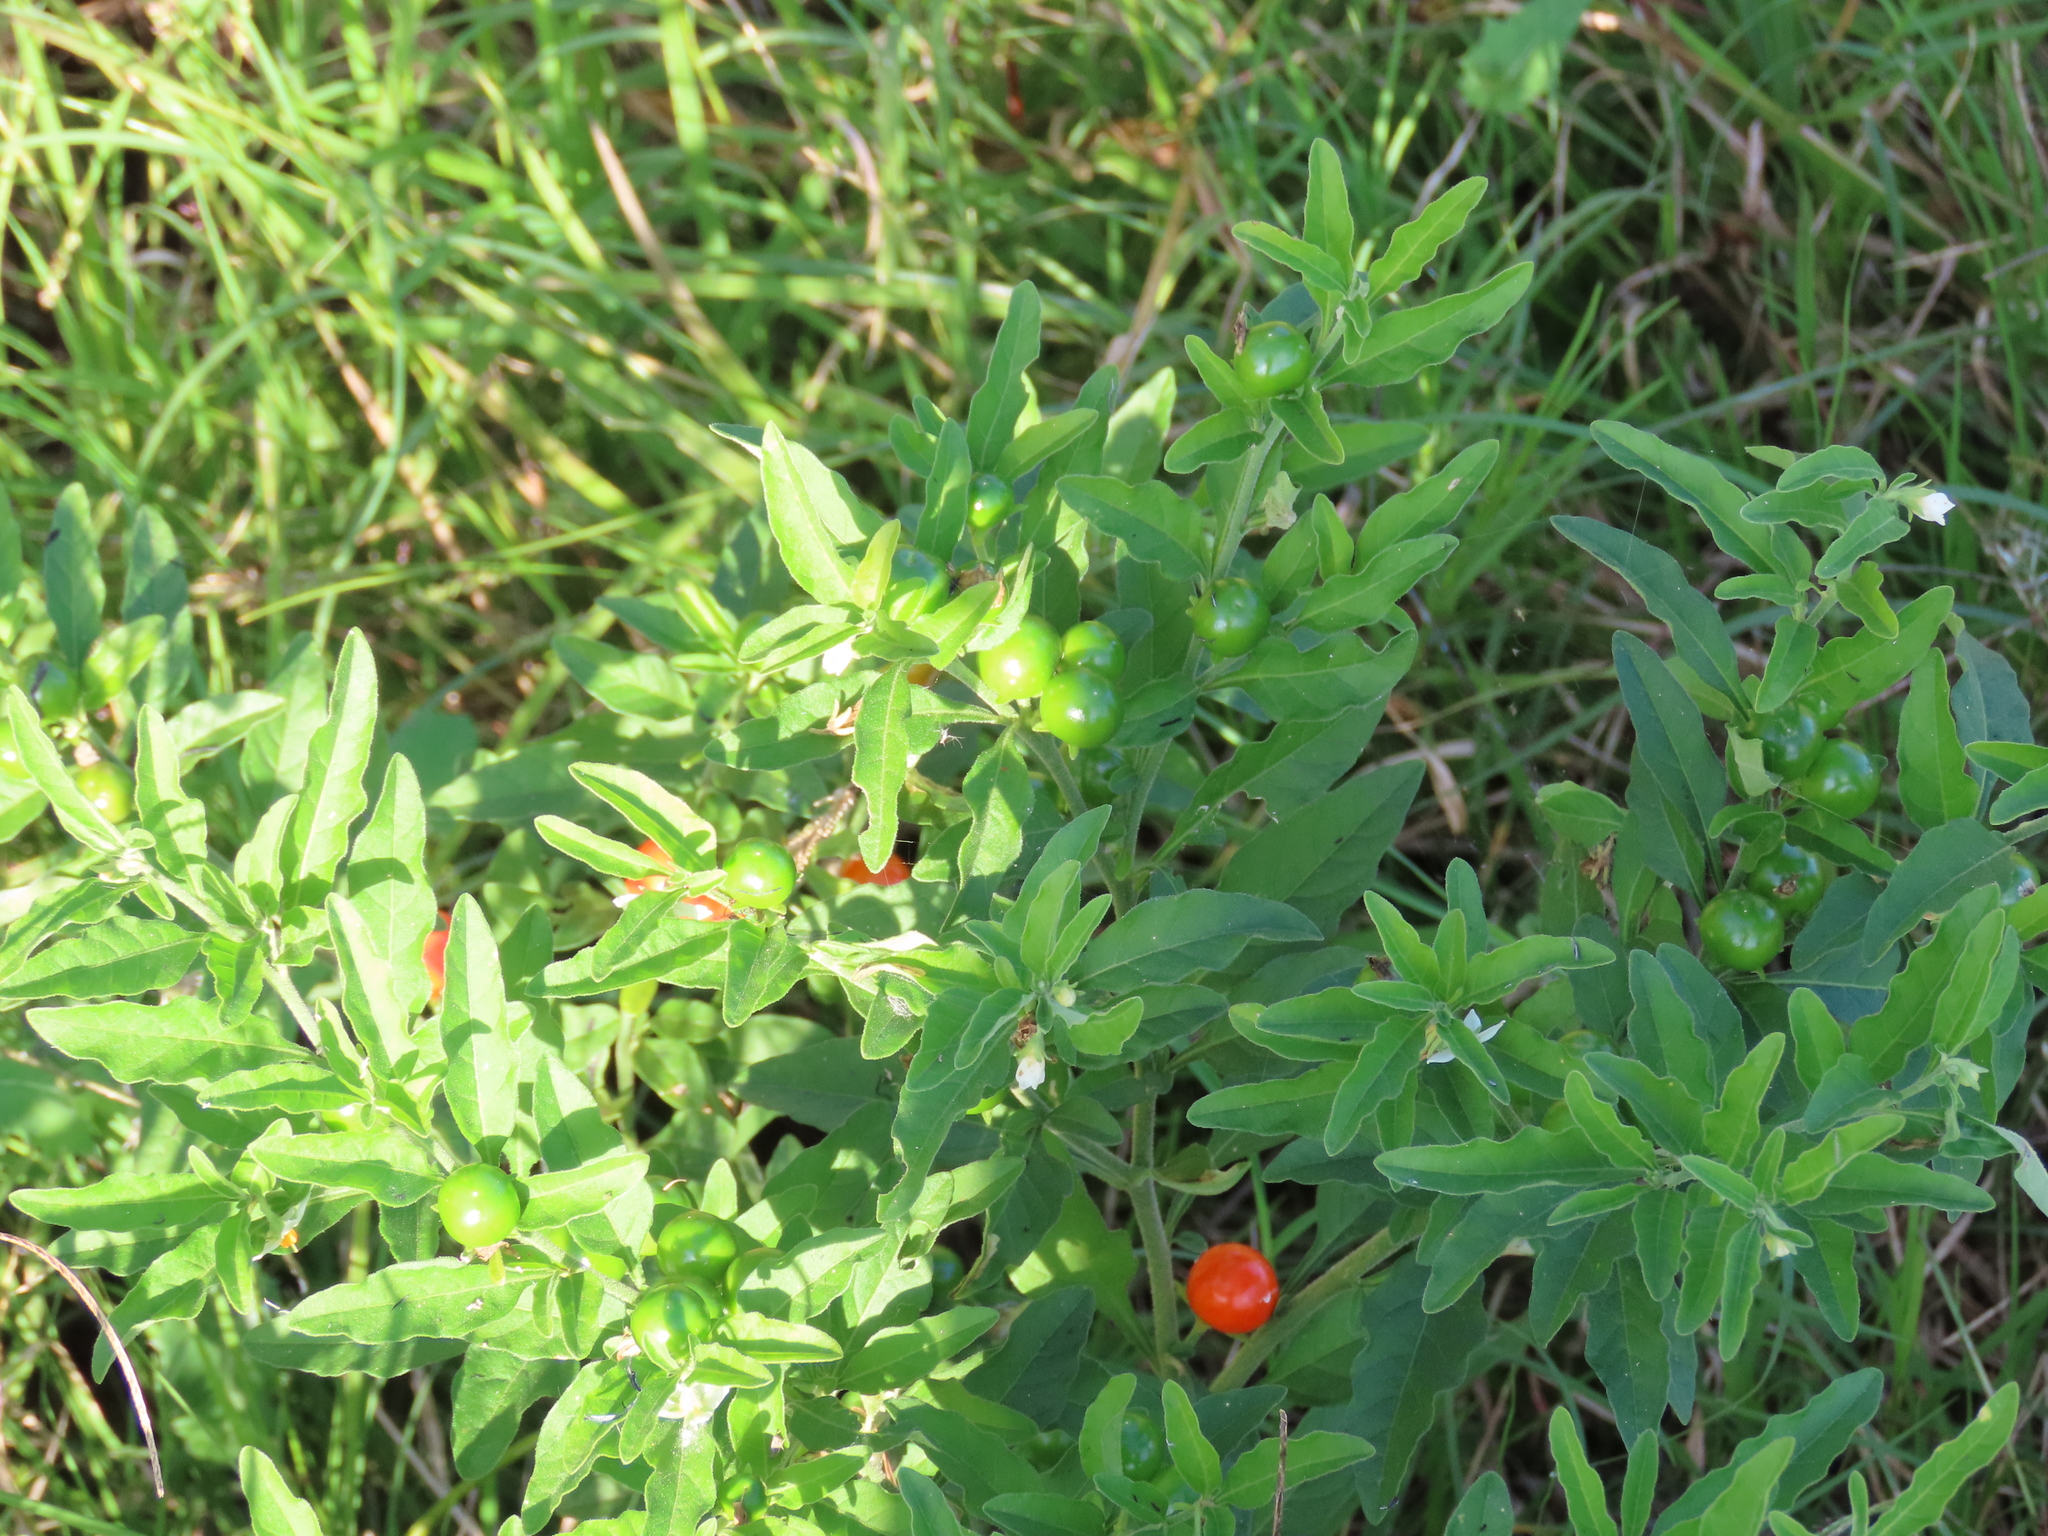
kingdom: Plantae
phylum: Tracheophyta
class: Magnoliopsida
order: Solanales
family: Solanaceae
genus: Solanum
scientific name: Solanum pseudocapsicum
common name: Jerusalem cherry
